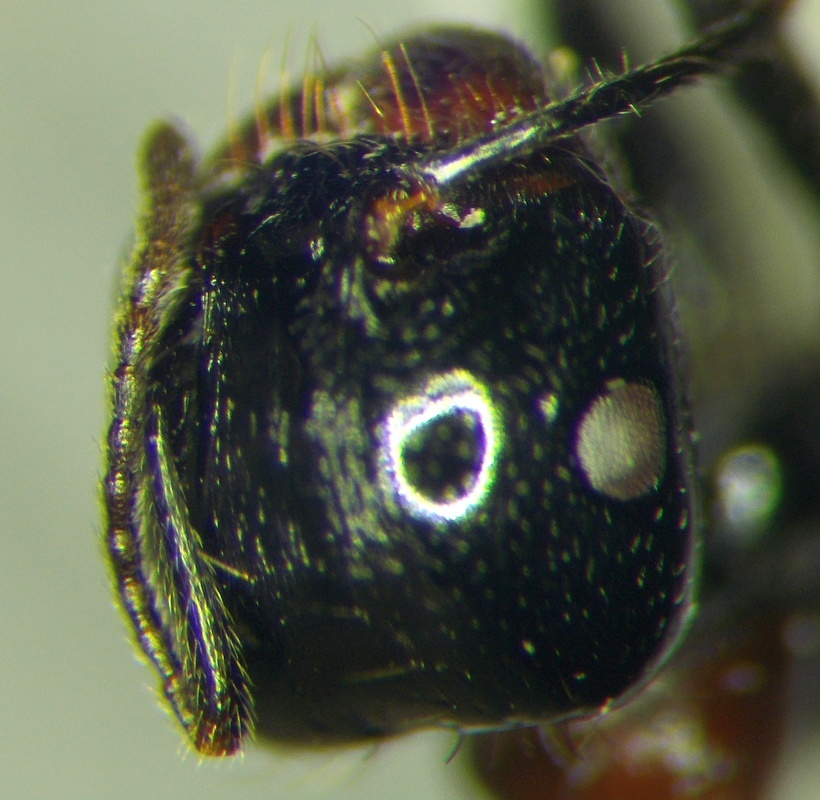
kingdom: Animalia
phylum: Arthropoda
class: Insecta
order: Hymenoptera
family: Formicidae
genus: Messor
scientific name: Messor denticulatus
